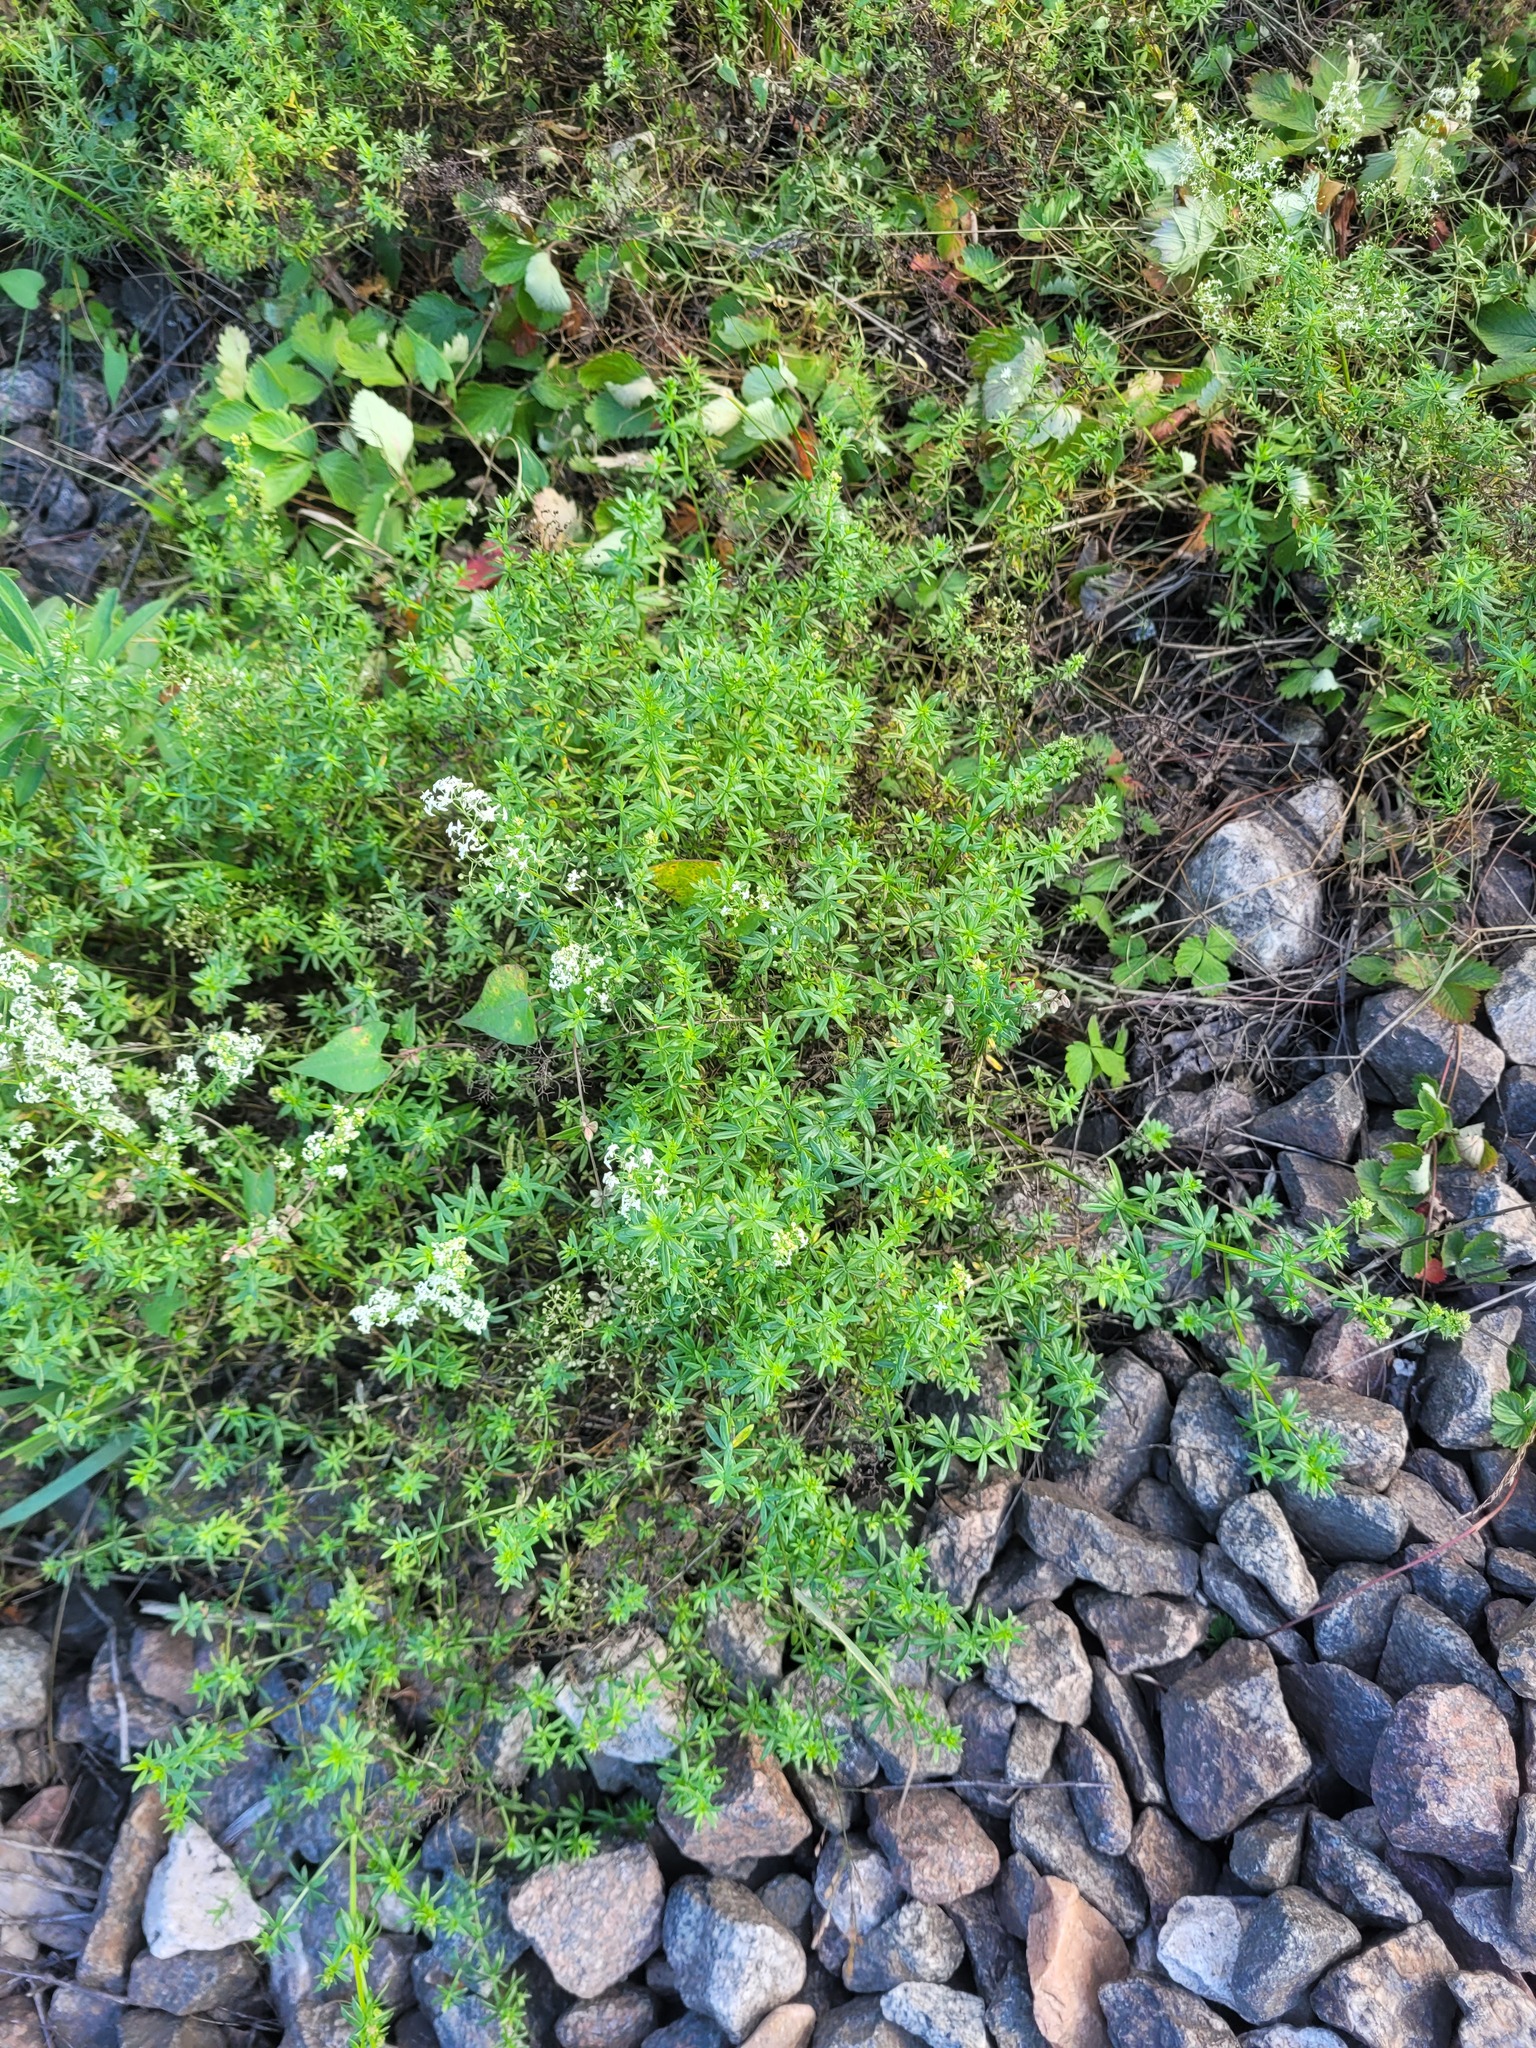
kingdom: Plantae
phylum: Tracheophyta
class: Magnoliopsida
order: Gentianales
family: Rubiaceae
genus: Galium
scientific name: Galium mollugo
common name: Hedge bedstraw
